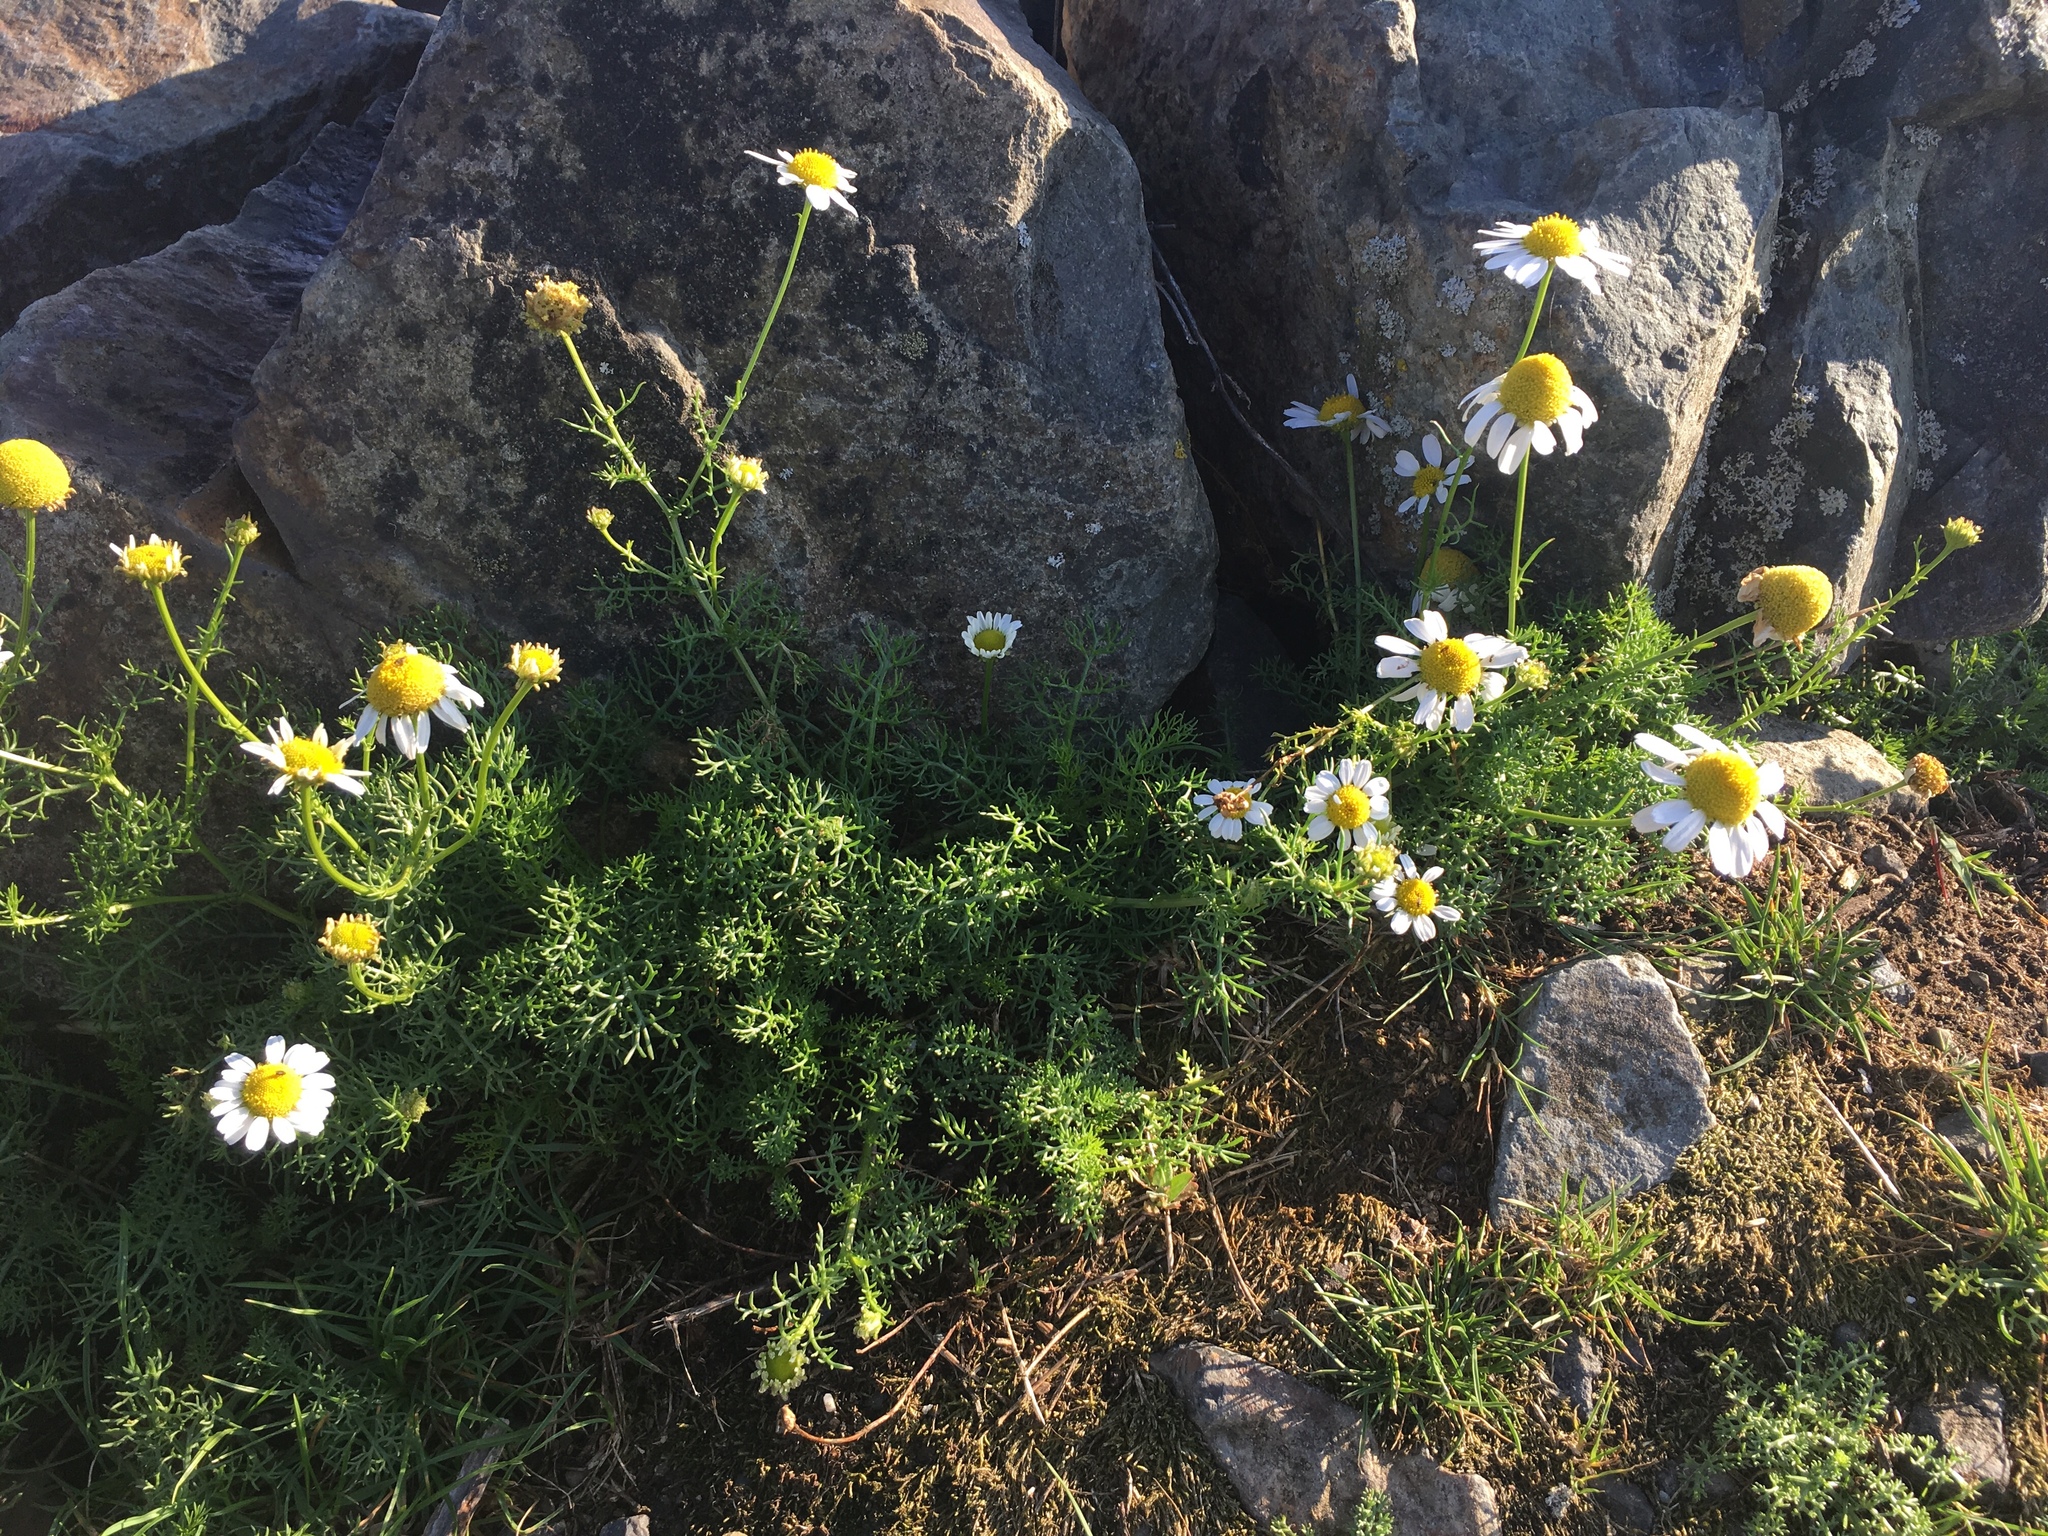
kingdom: Plantae
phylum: Tracheophyta
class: Magnoliopsida
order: Asterales
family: Asteraceae
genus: Tripleurospermum
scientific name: Tripleurospermum maritimum
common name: Sea mayweed
